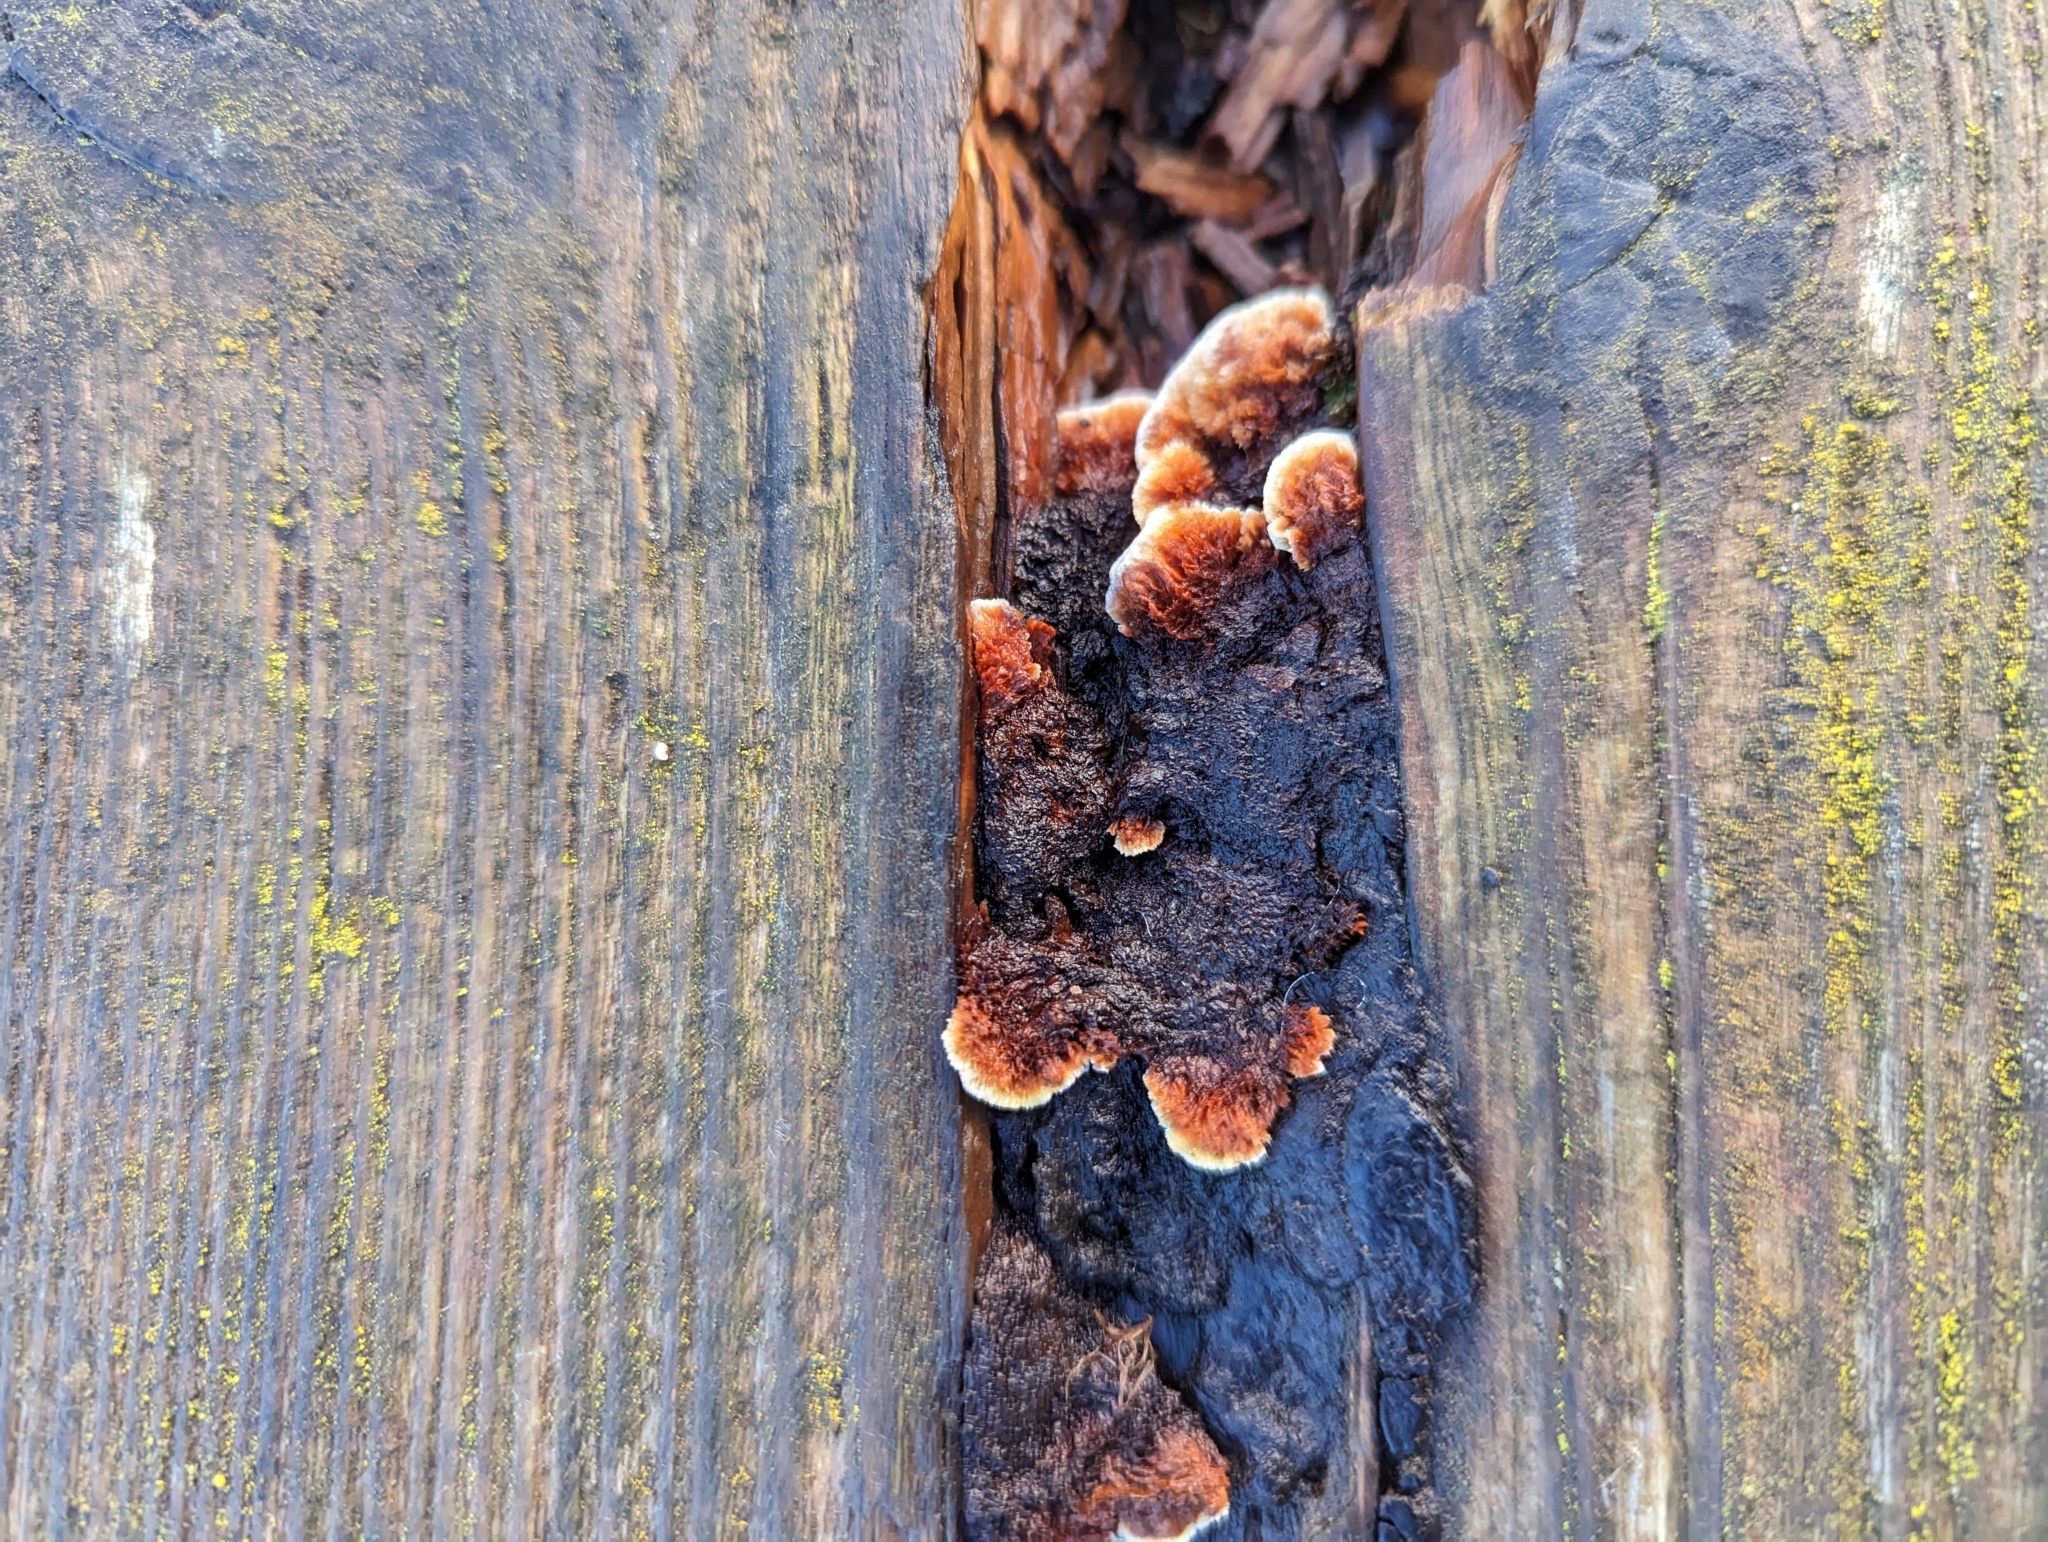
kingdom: Fungi
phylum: Basidiomycota
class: Agaricomycetes
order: Gloeophyllales
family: Gloeophyllaceae
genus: Gloeophyllum
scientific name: Gloeophyllum sepiarium
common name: Conifer mazegill
